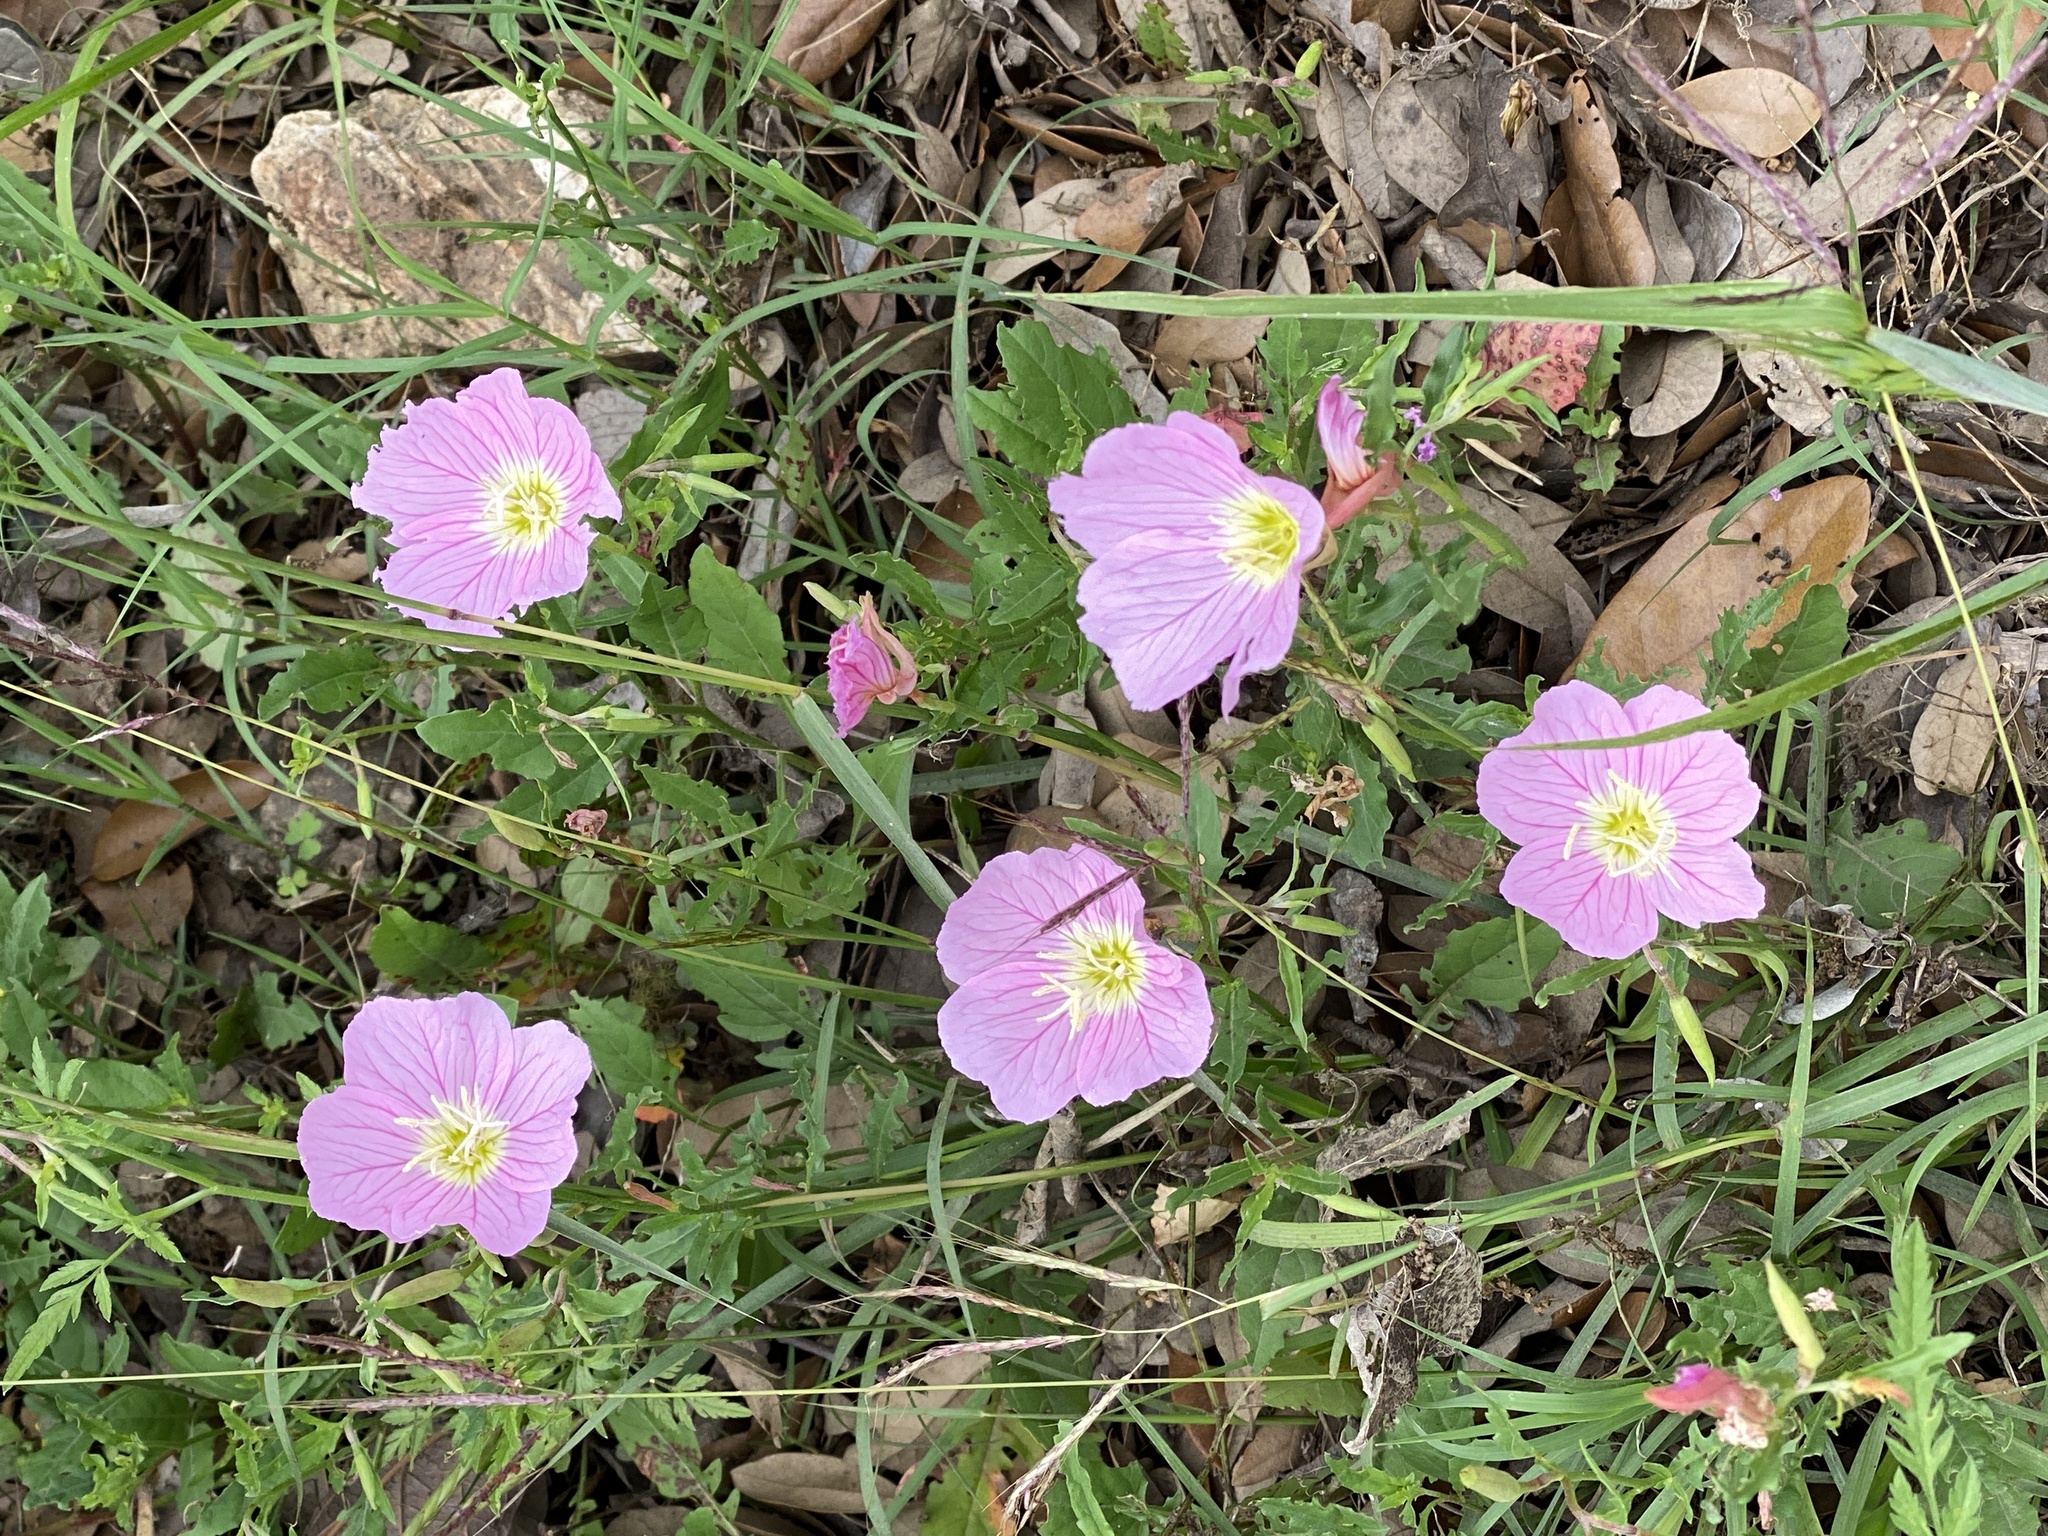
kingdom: Plantae
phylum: Tracheophyta
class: Magnoliopsida
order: Myrtales
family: Onagraceae
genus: Oenothera
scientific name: Oenothera speciosa
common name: White evening-primrose
